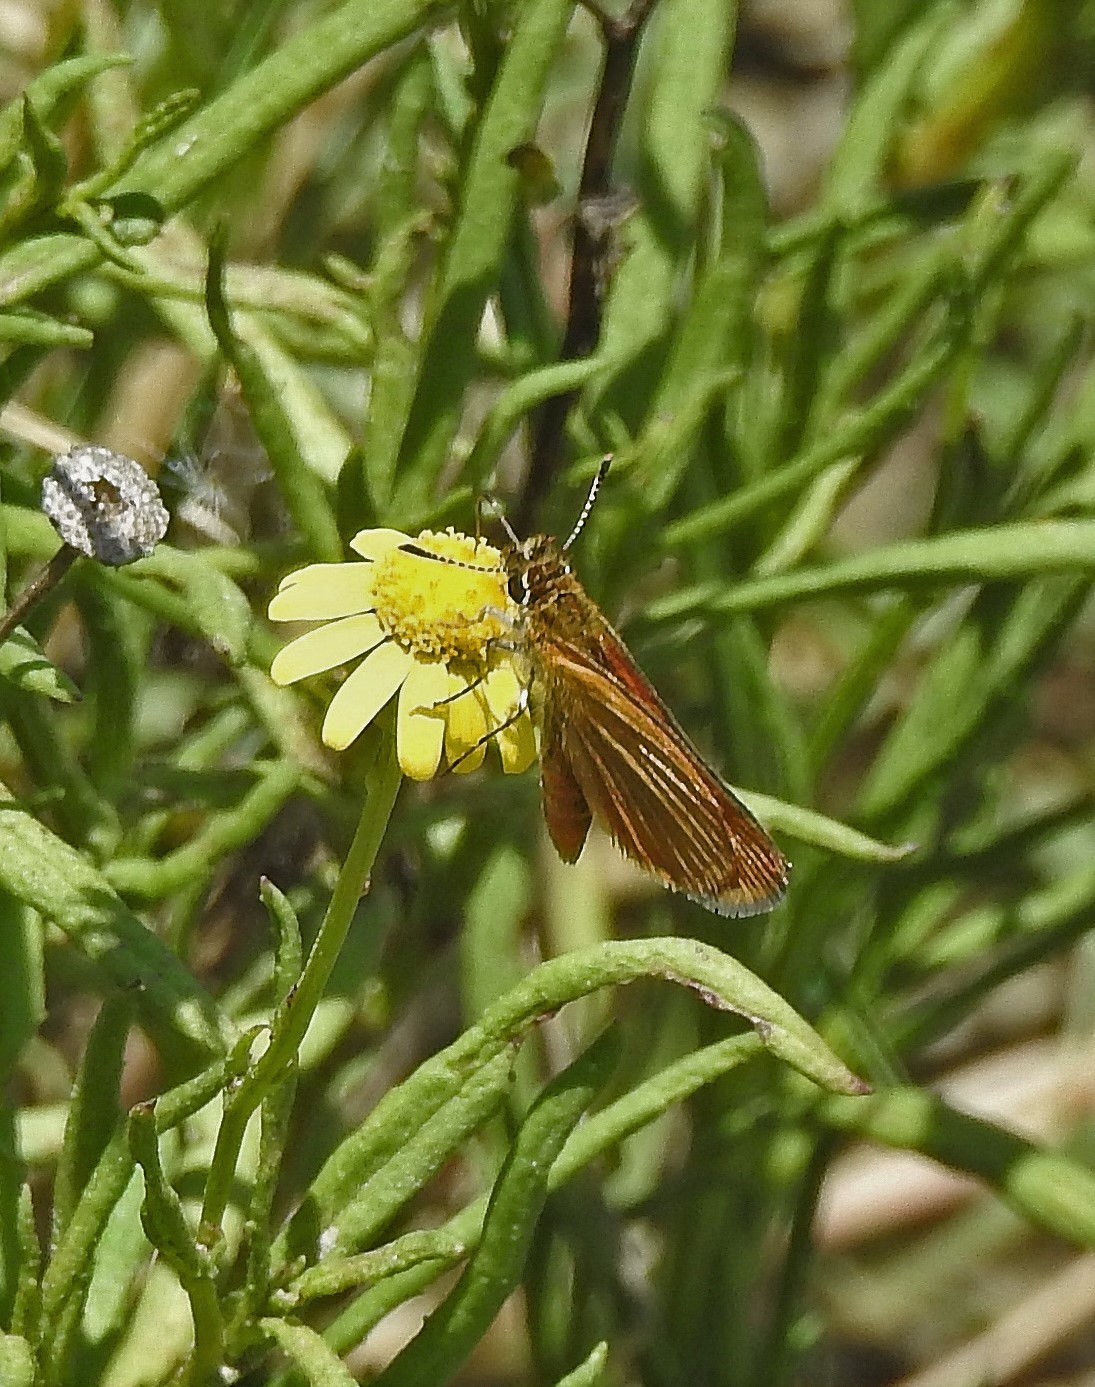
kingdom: Animalia
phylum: Arthropoda
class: Insecta
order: Lepidoptera
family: Hesperiidae
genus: Ancyloxypha
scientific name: Ancyloxypha nitedula
